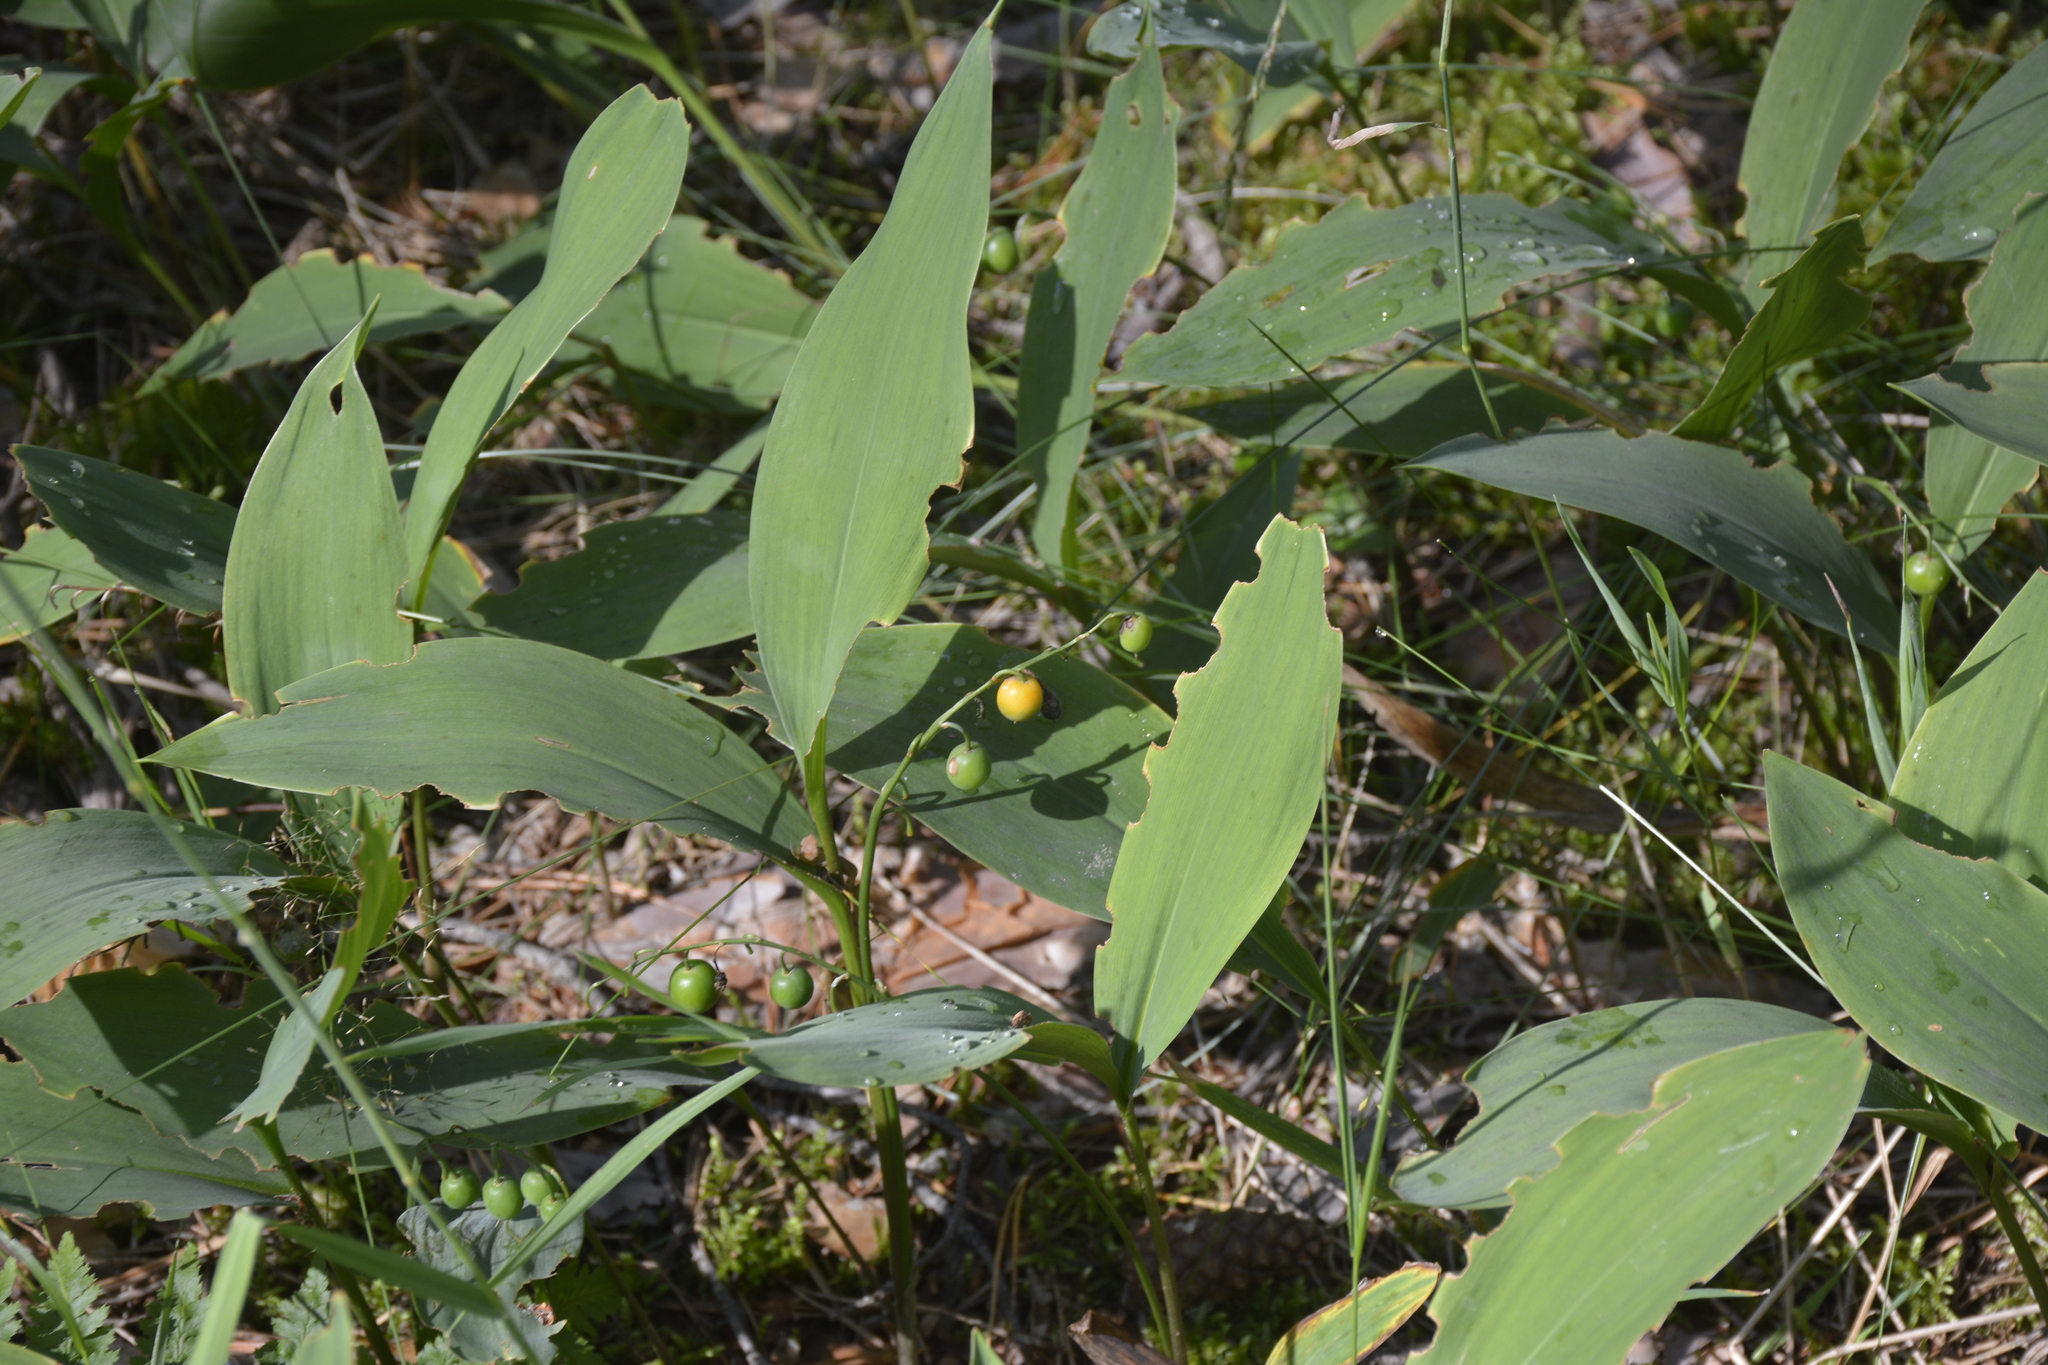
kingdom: Plantae
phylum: Tracheophyta
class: Liliopsida
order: Asparagales
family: Asparagaceae
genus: Convallaria
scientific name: Convallaria majalis
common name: Lily-of-the-valley
